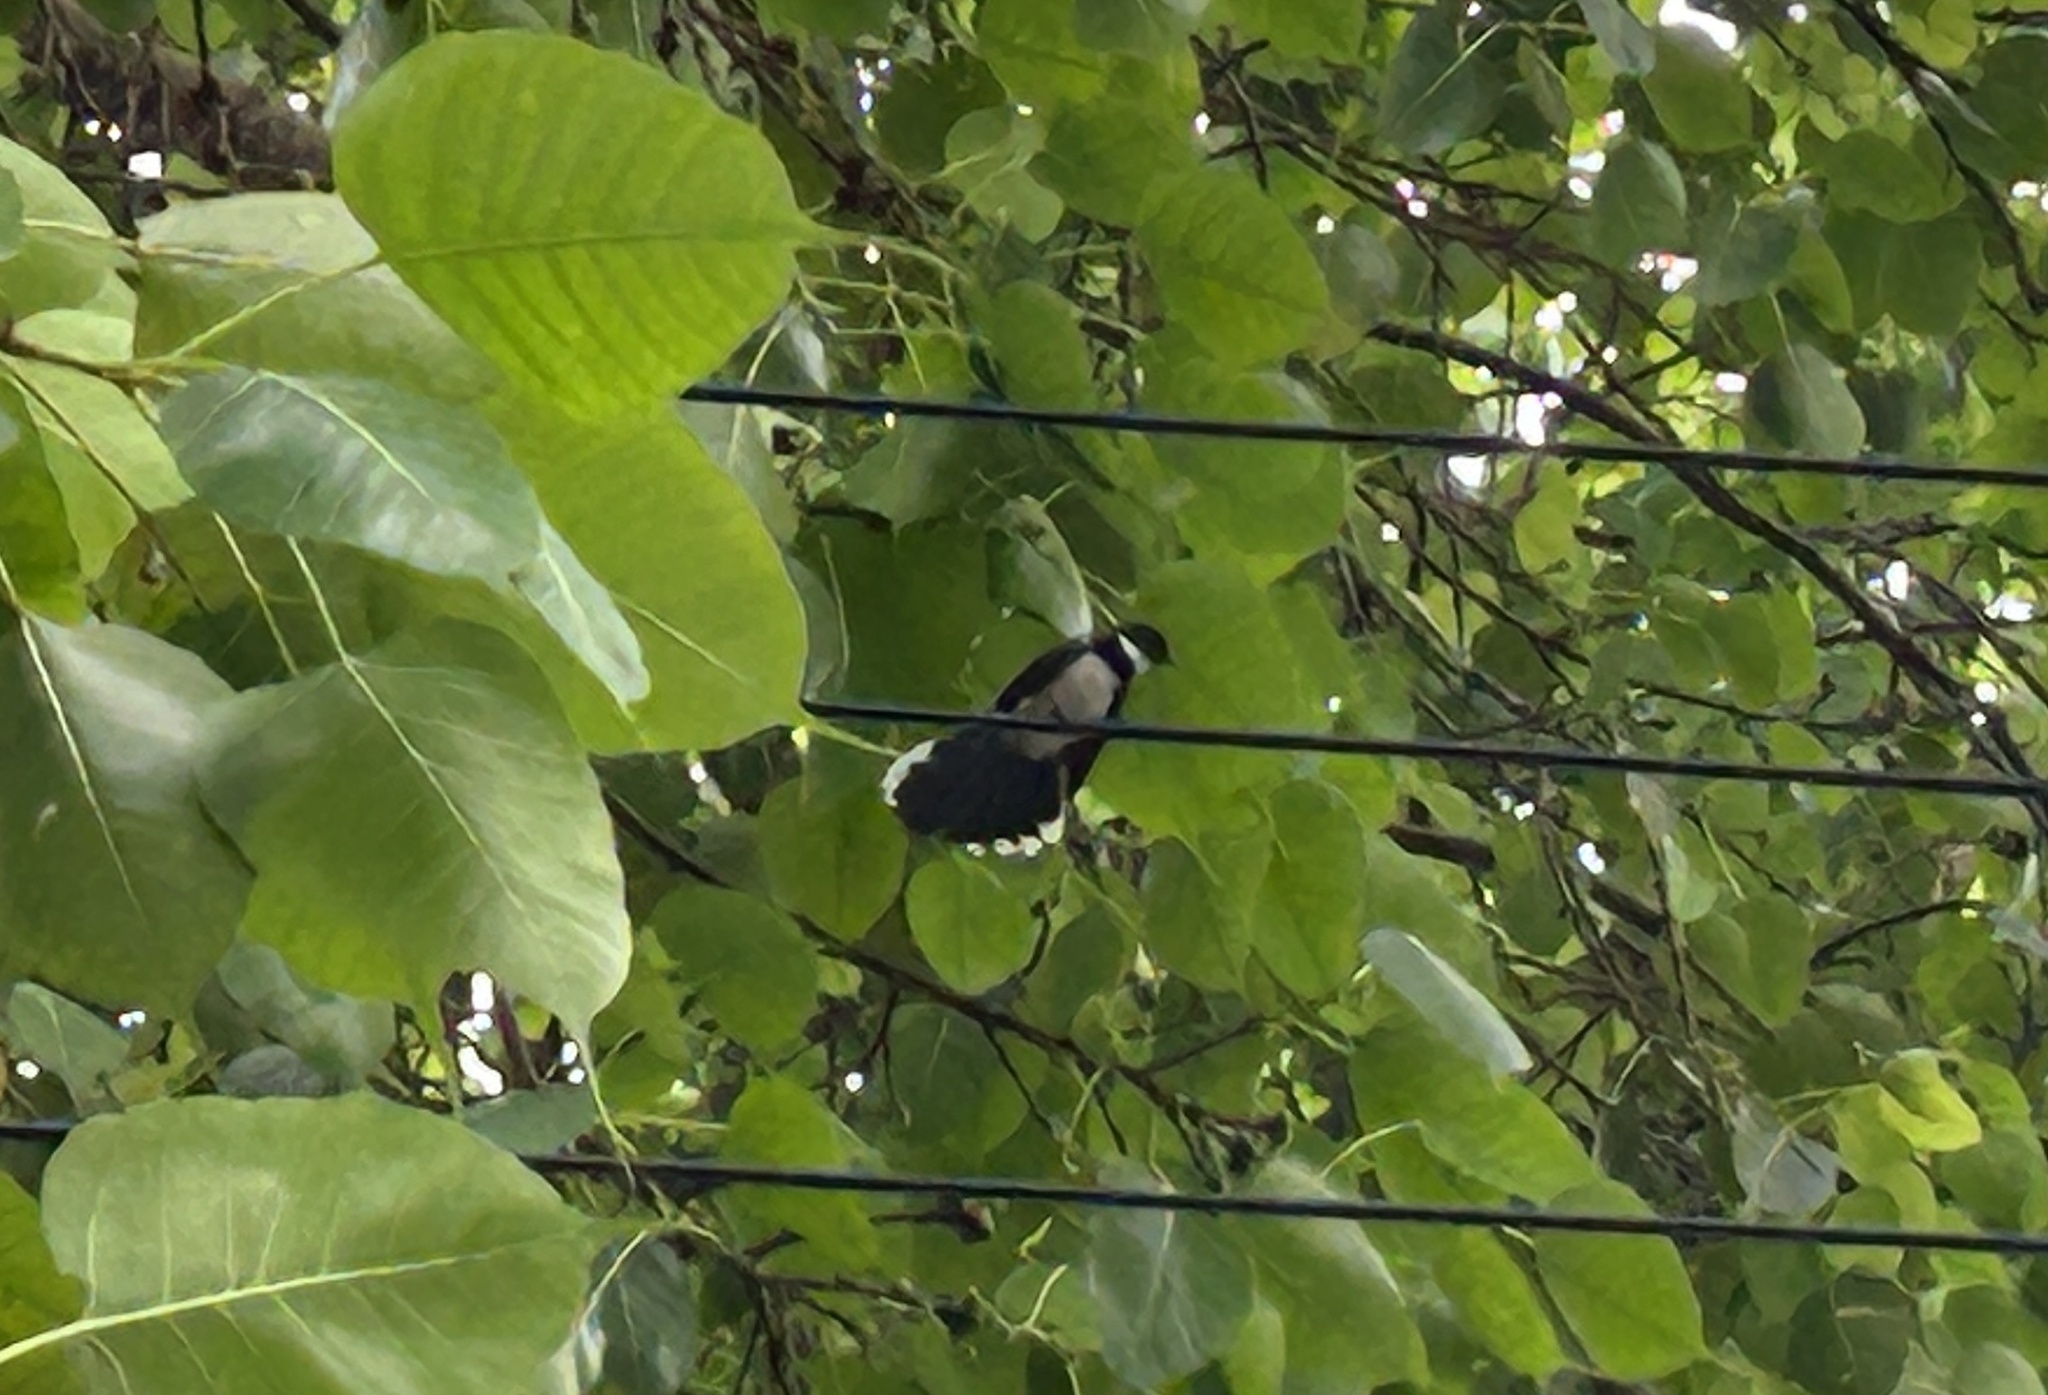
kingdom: Animalia
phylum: Chordata
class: Aves
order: Passeriformes
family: Rhipiduridae
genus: Rhipidura
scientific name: Rhipidura javanica
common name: Pied fantail
